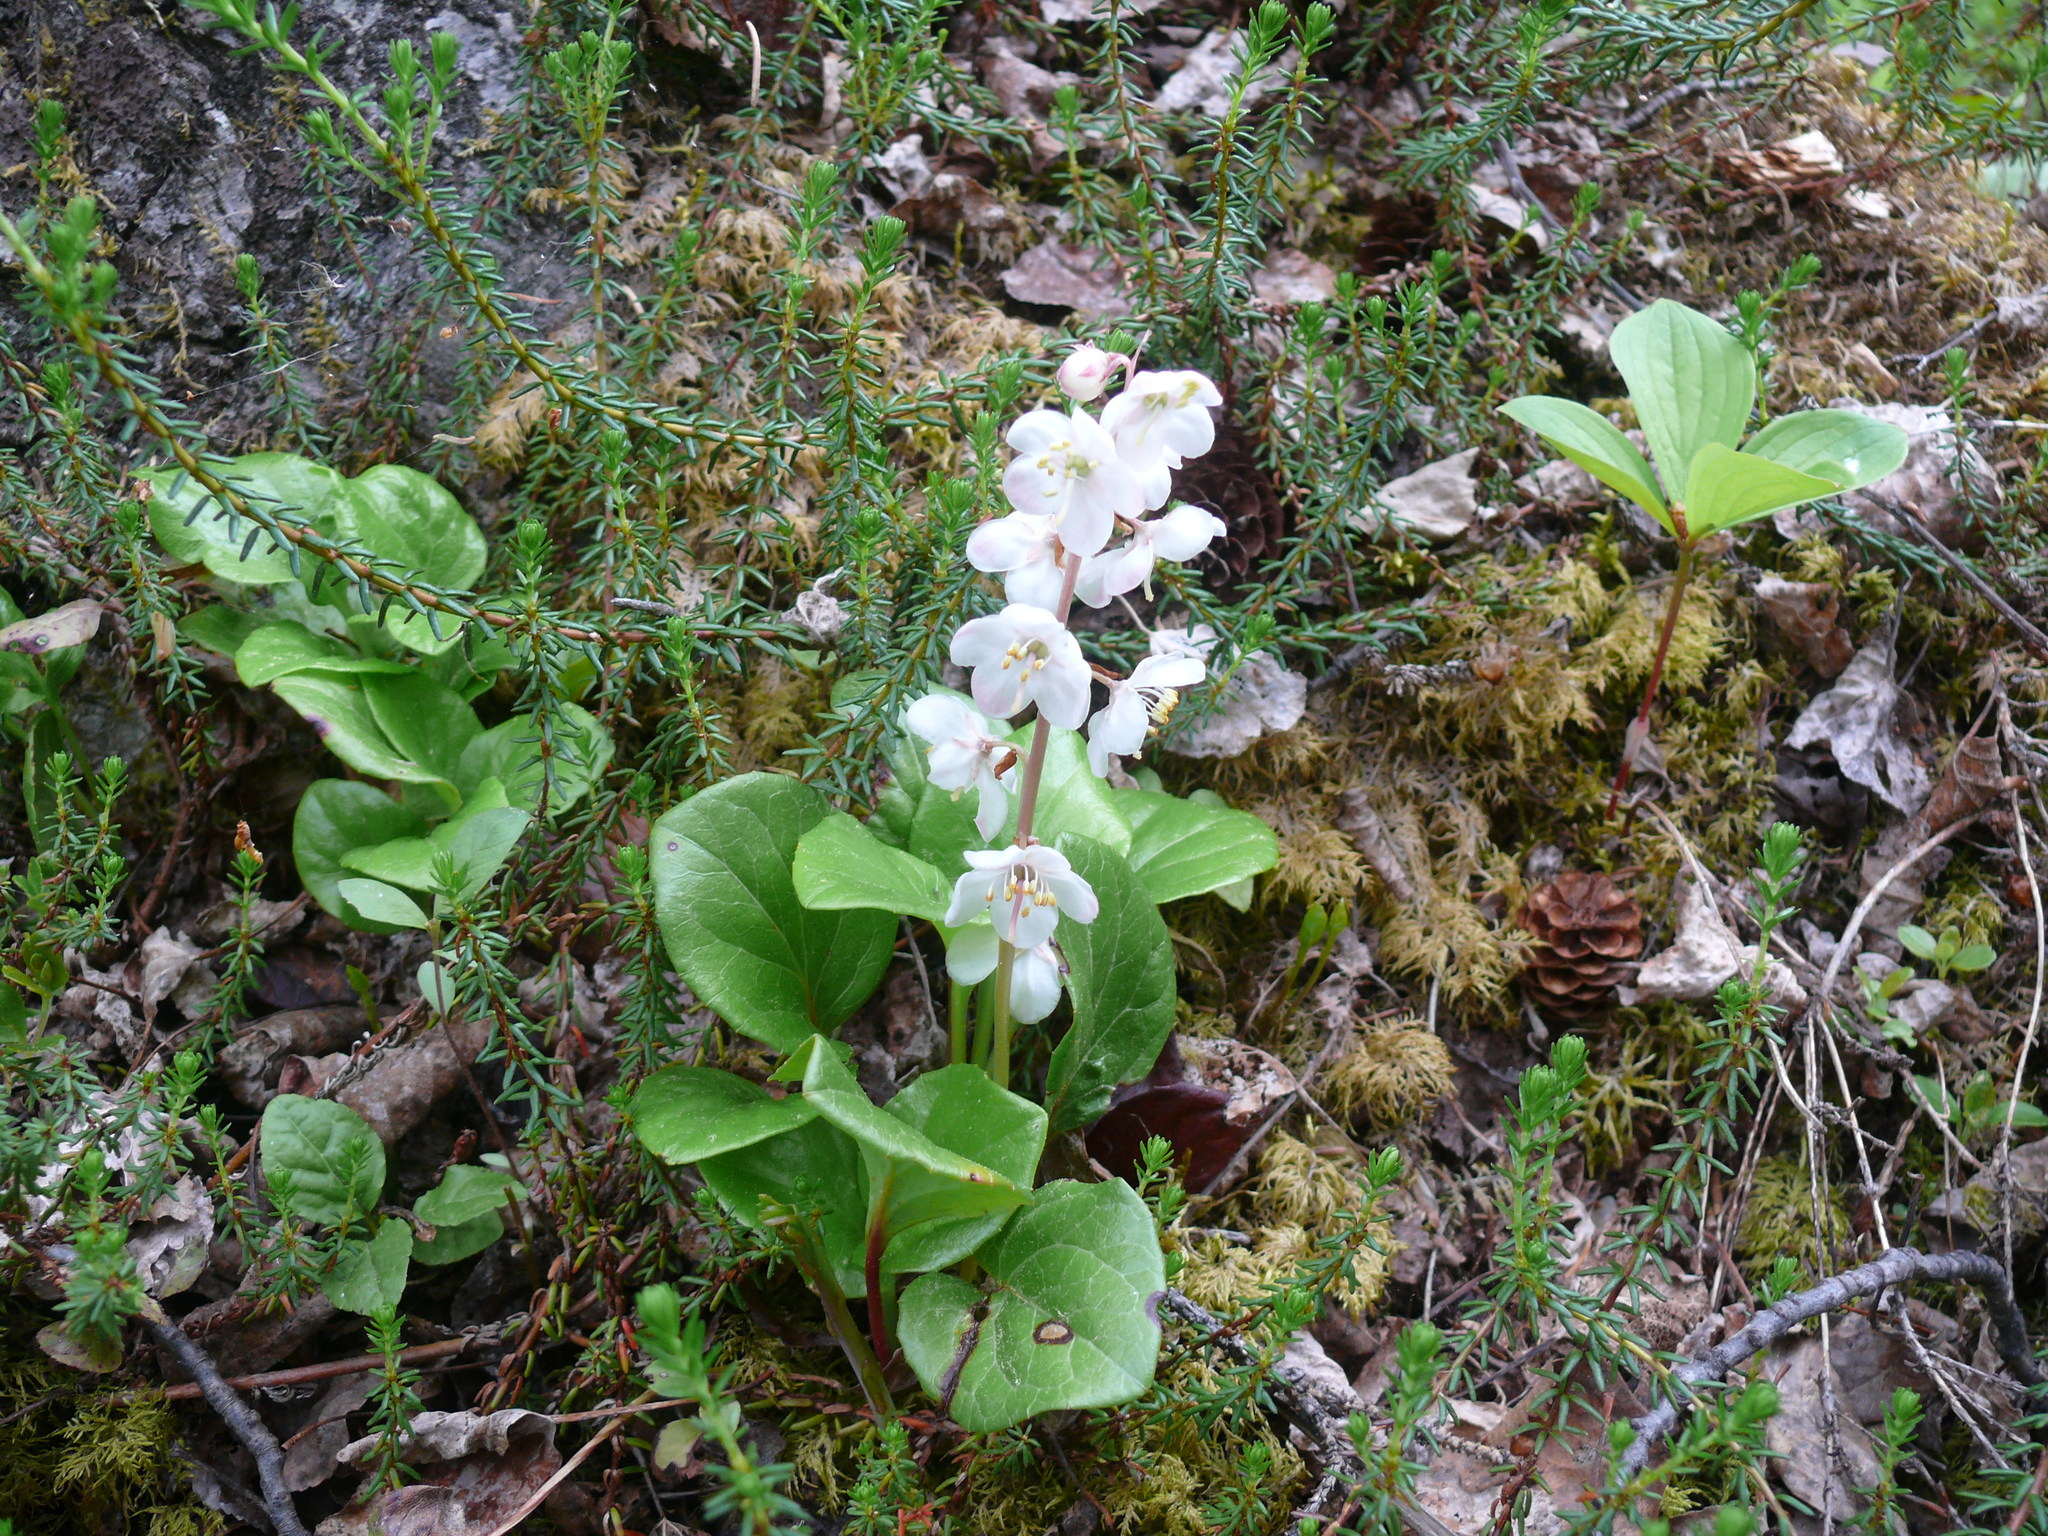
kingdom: Plantae
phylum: Tracheophyta
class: Magnoliopsida
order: Ericales
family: Ericaceae
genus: Pyrola
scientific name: Pyrola grandiflora
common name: Arctic pyrola
